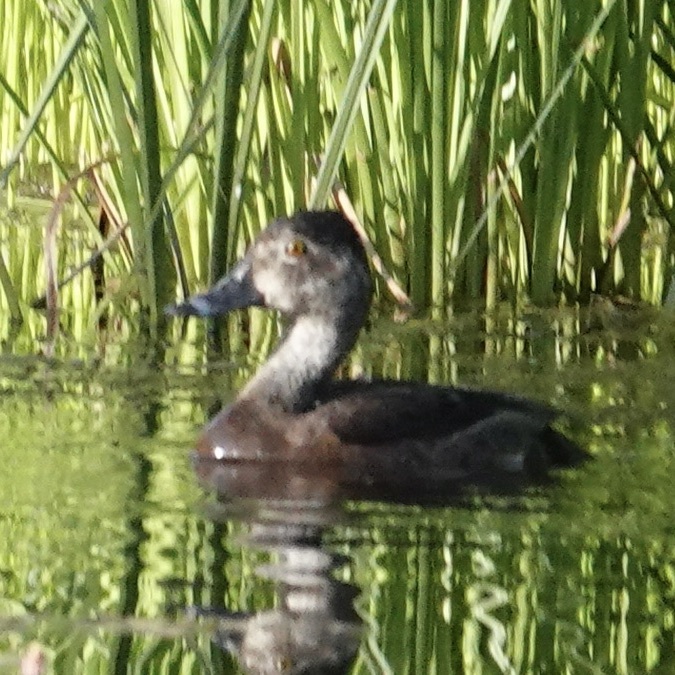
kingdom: Animalia
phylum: Chordata
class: Aves
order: Anseriformes
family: Anatidae
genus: Aythya
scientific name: Aythya collaris
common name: Ring-necked duck
